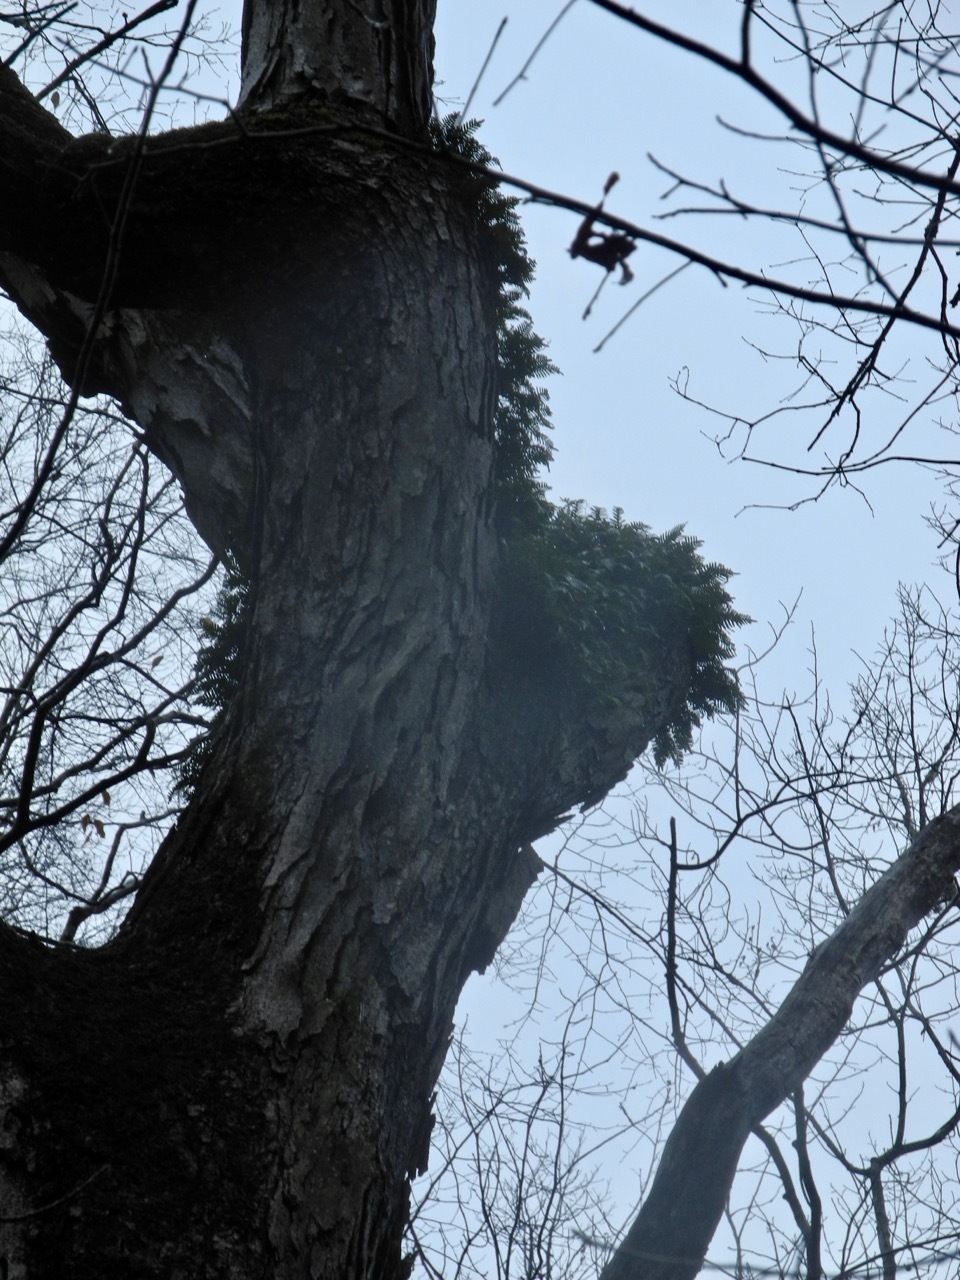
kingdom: Plantae
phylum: Tracheophyta
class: Polypodiopsida
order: Polypodiales
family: Polypodiaceae
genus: Pleopeltis
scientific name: Pleopeltis michauxiana
